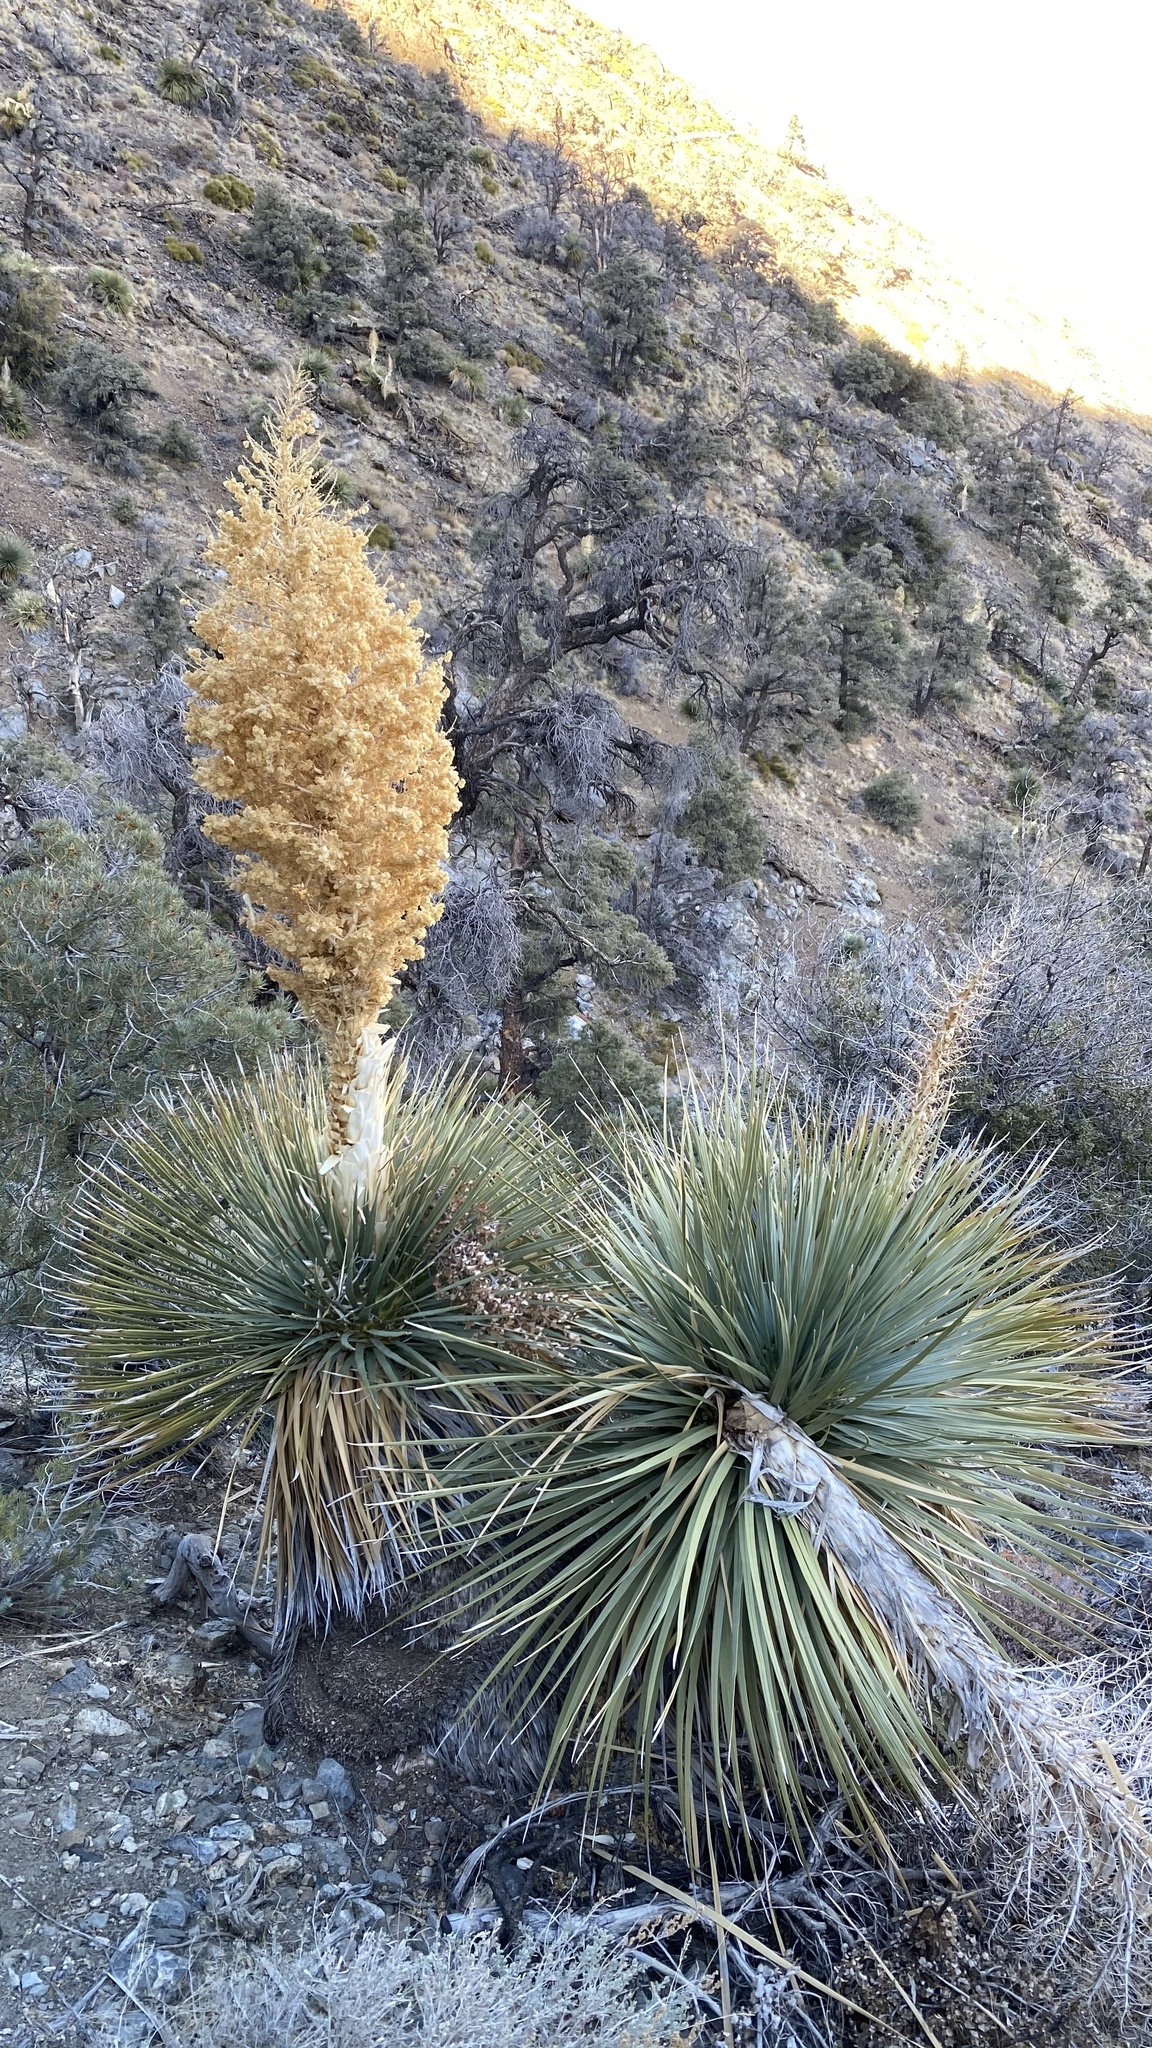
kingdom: Plantae
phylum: Tracheophyta
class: Liliopsida
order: Asparagales
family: Asparagaceae
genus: Nolina
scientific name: Nolina parryi
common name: Parry nolina
